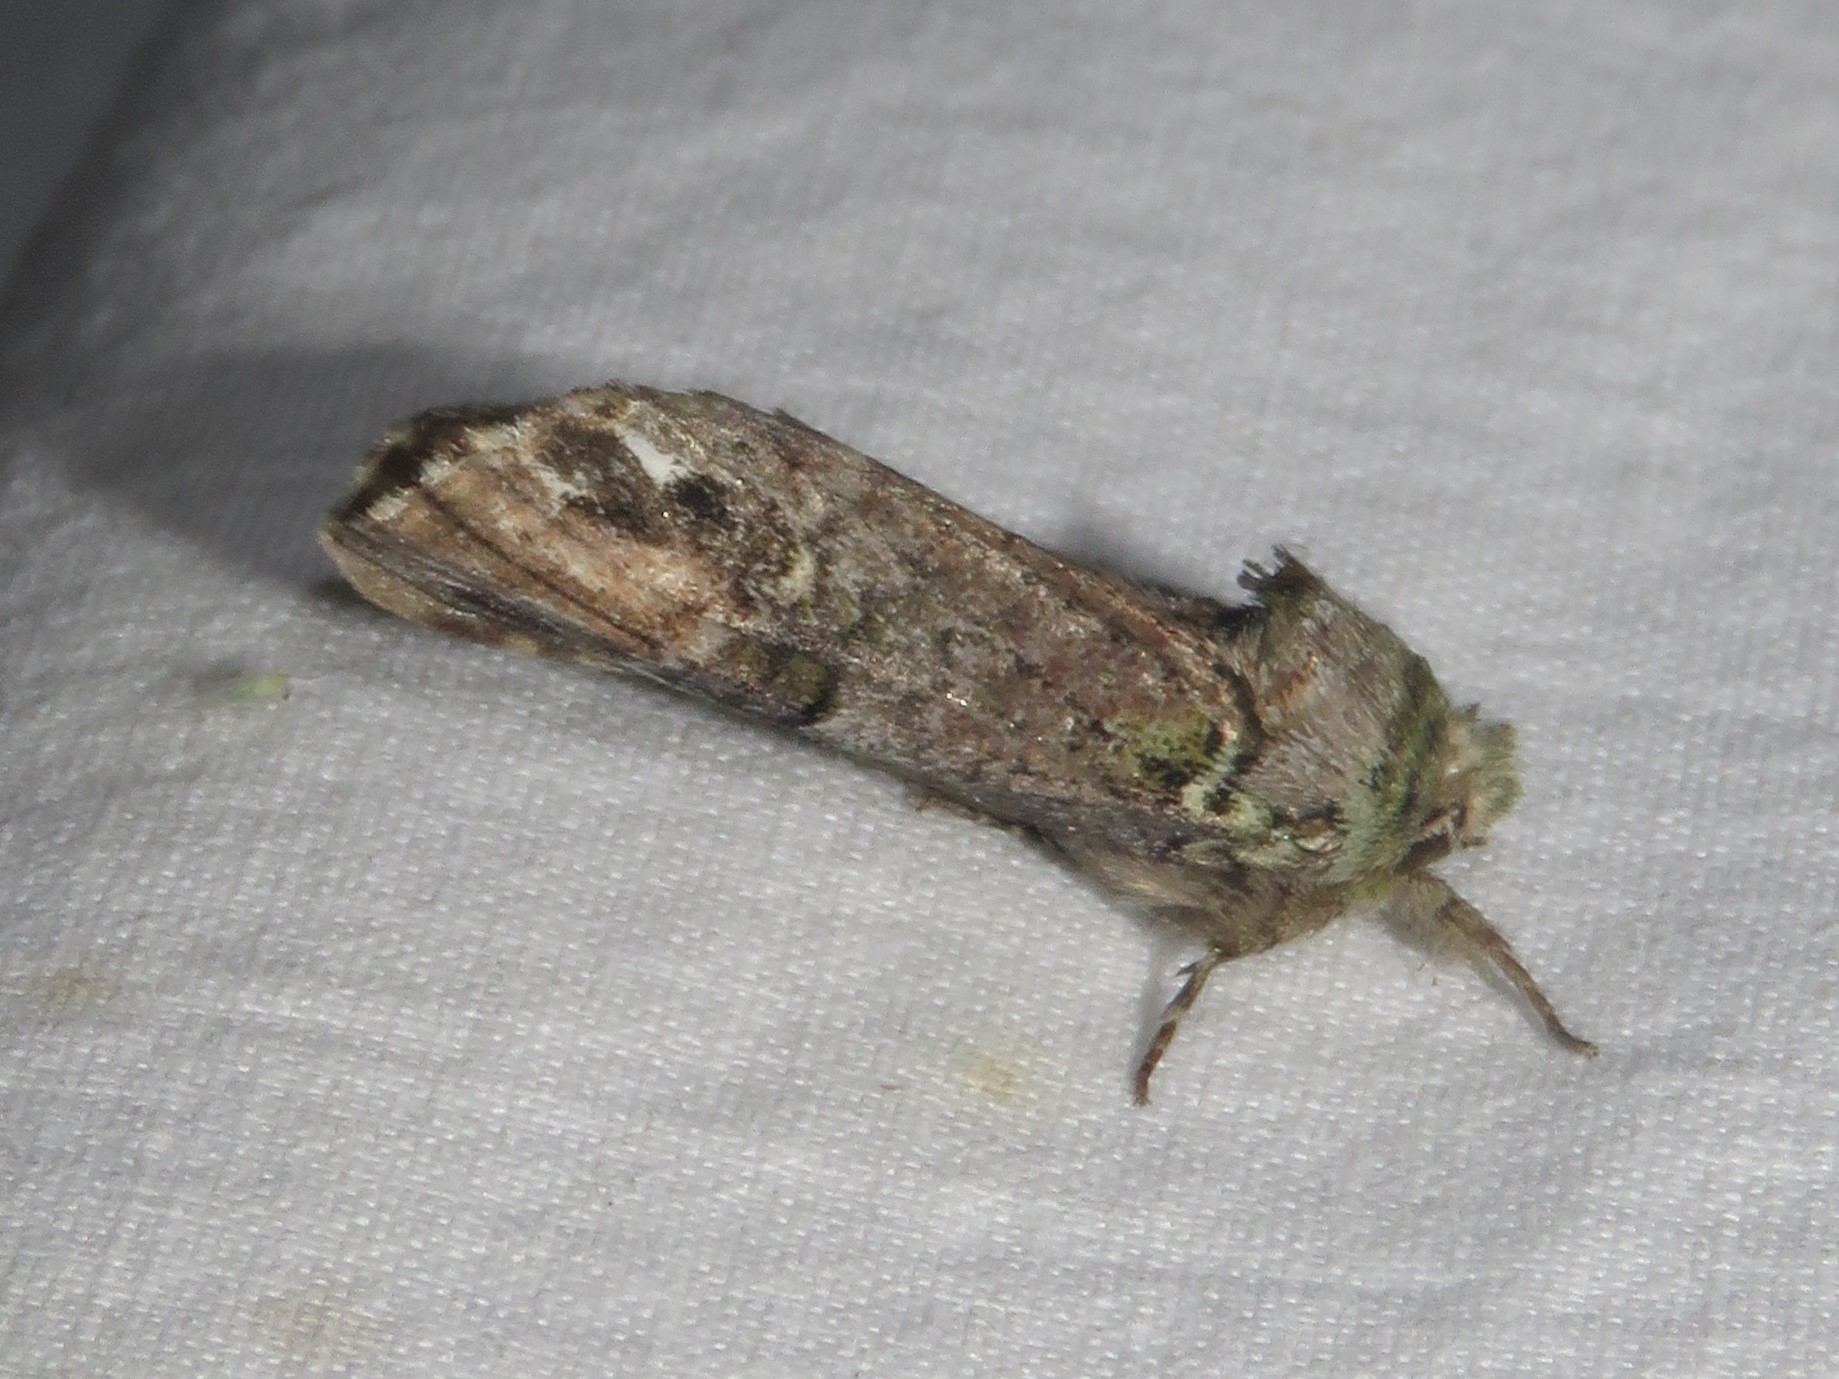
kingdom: Animalia
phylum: Arthropoda
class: Insecta
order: Lepidoptera
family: Notodontidae
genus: Schizura
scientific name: Schizura
